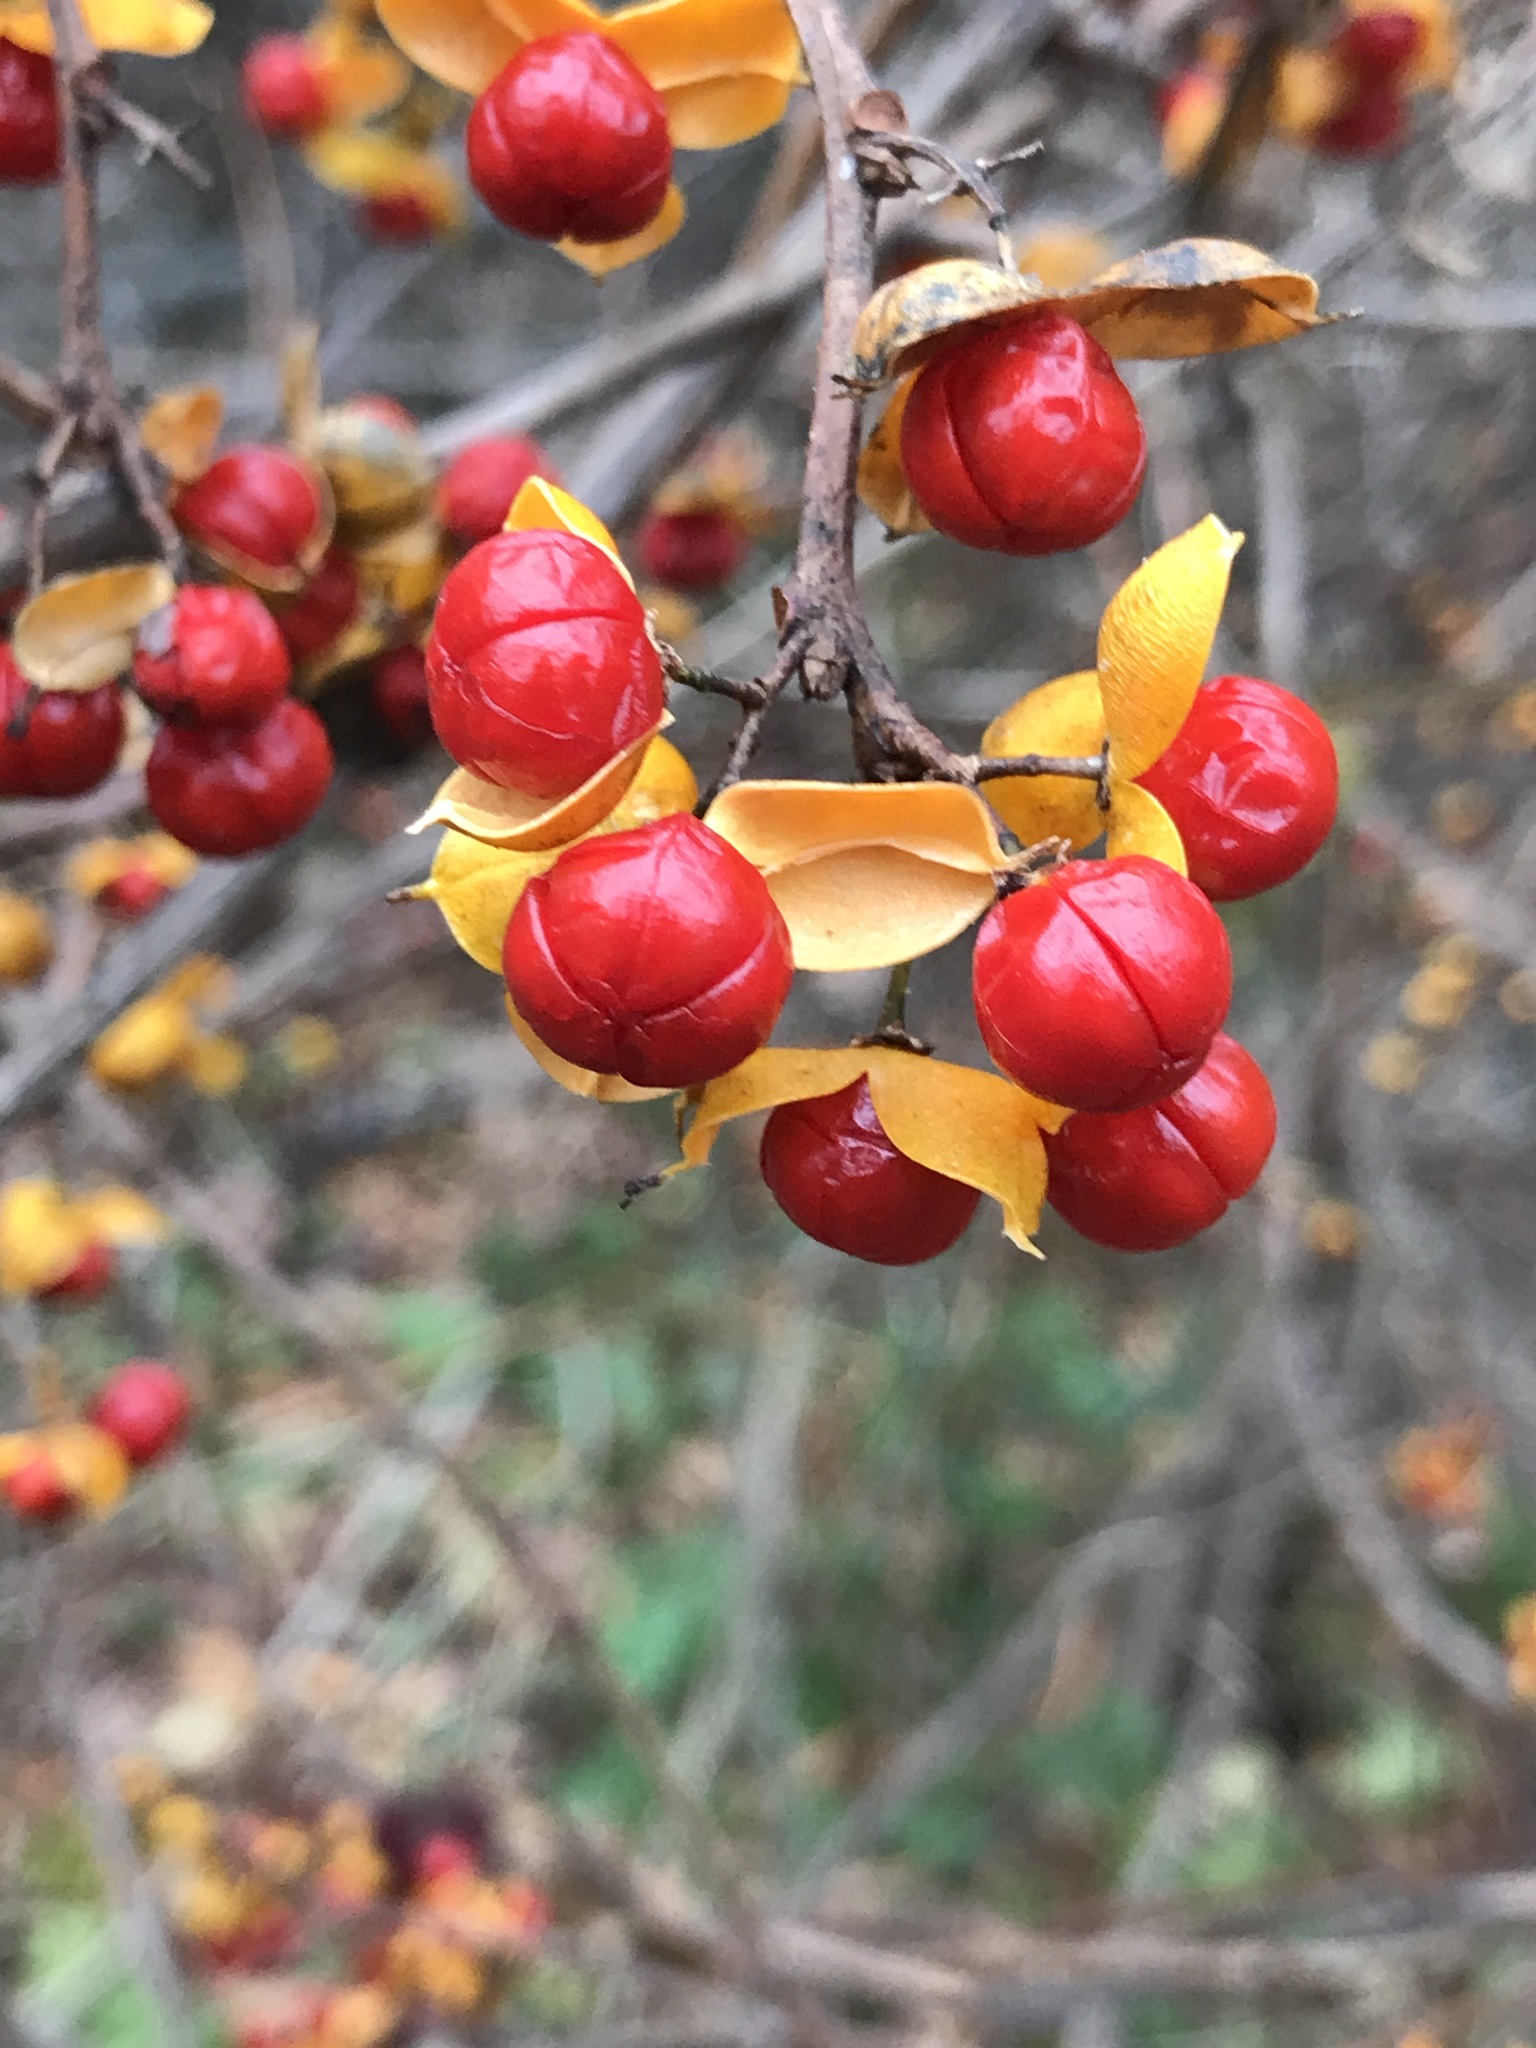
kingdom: Plantae
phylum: Tracheophyta
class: Magnoliopsida
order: Celastrales
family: Celastraceae
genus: Celastrus
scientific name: Celastrus orbiculatus
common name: Oriental bittersweet
